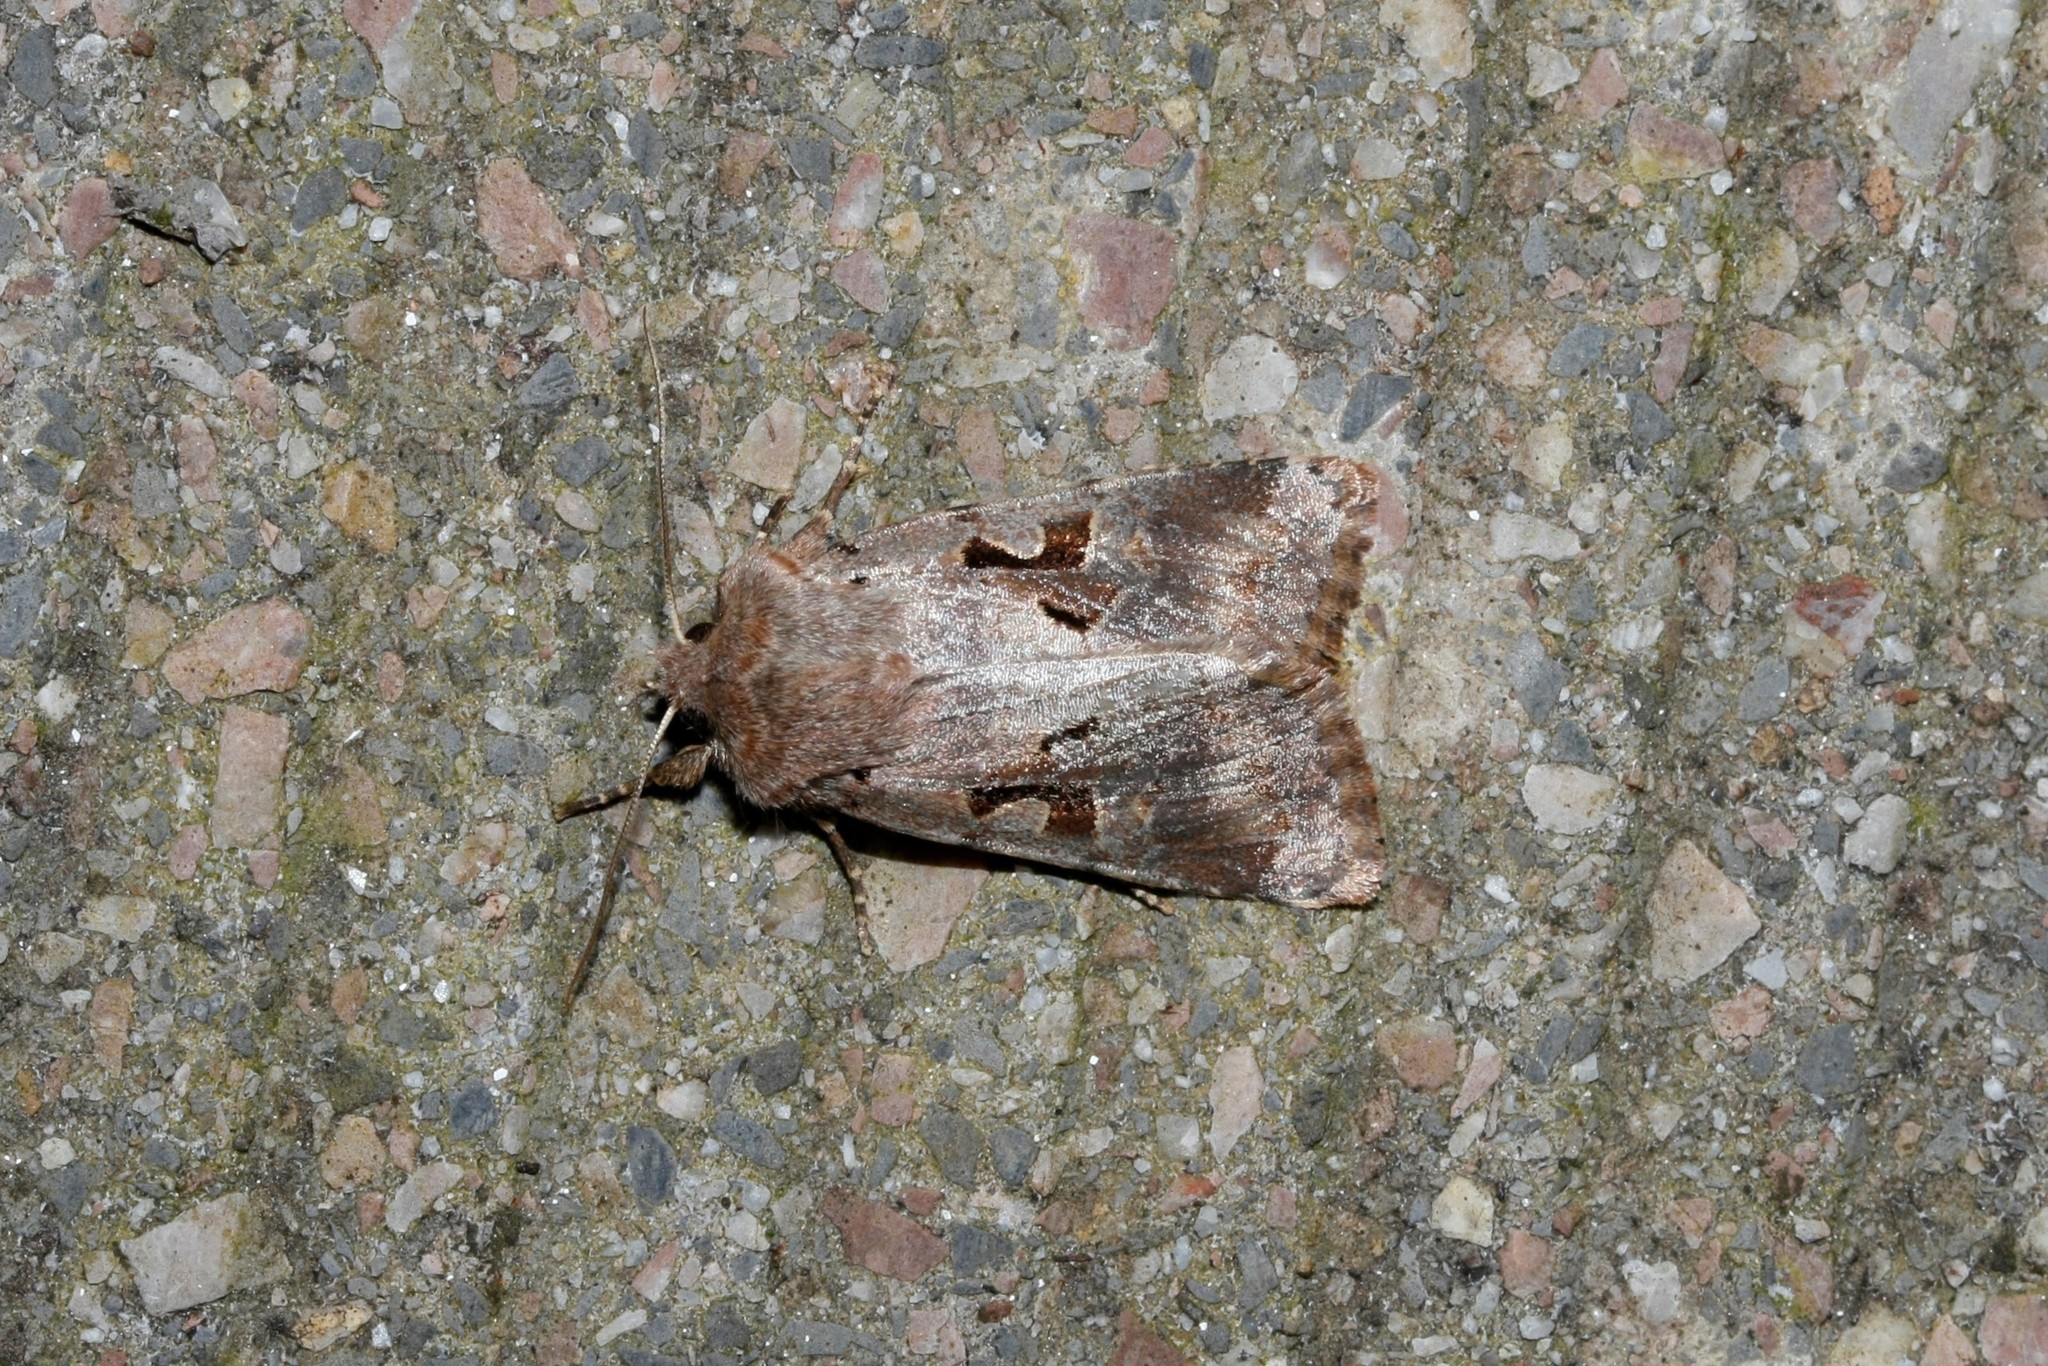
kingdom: Animalia
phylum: Arthropoda
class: Insecta
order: Lepidoptera
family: Noctuidae
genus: Orthosia
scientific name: Orthosia gothica
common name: Hebrew character
